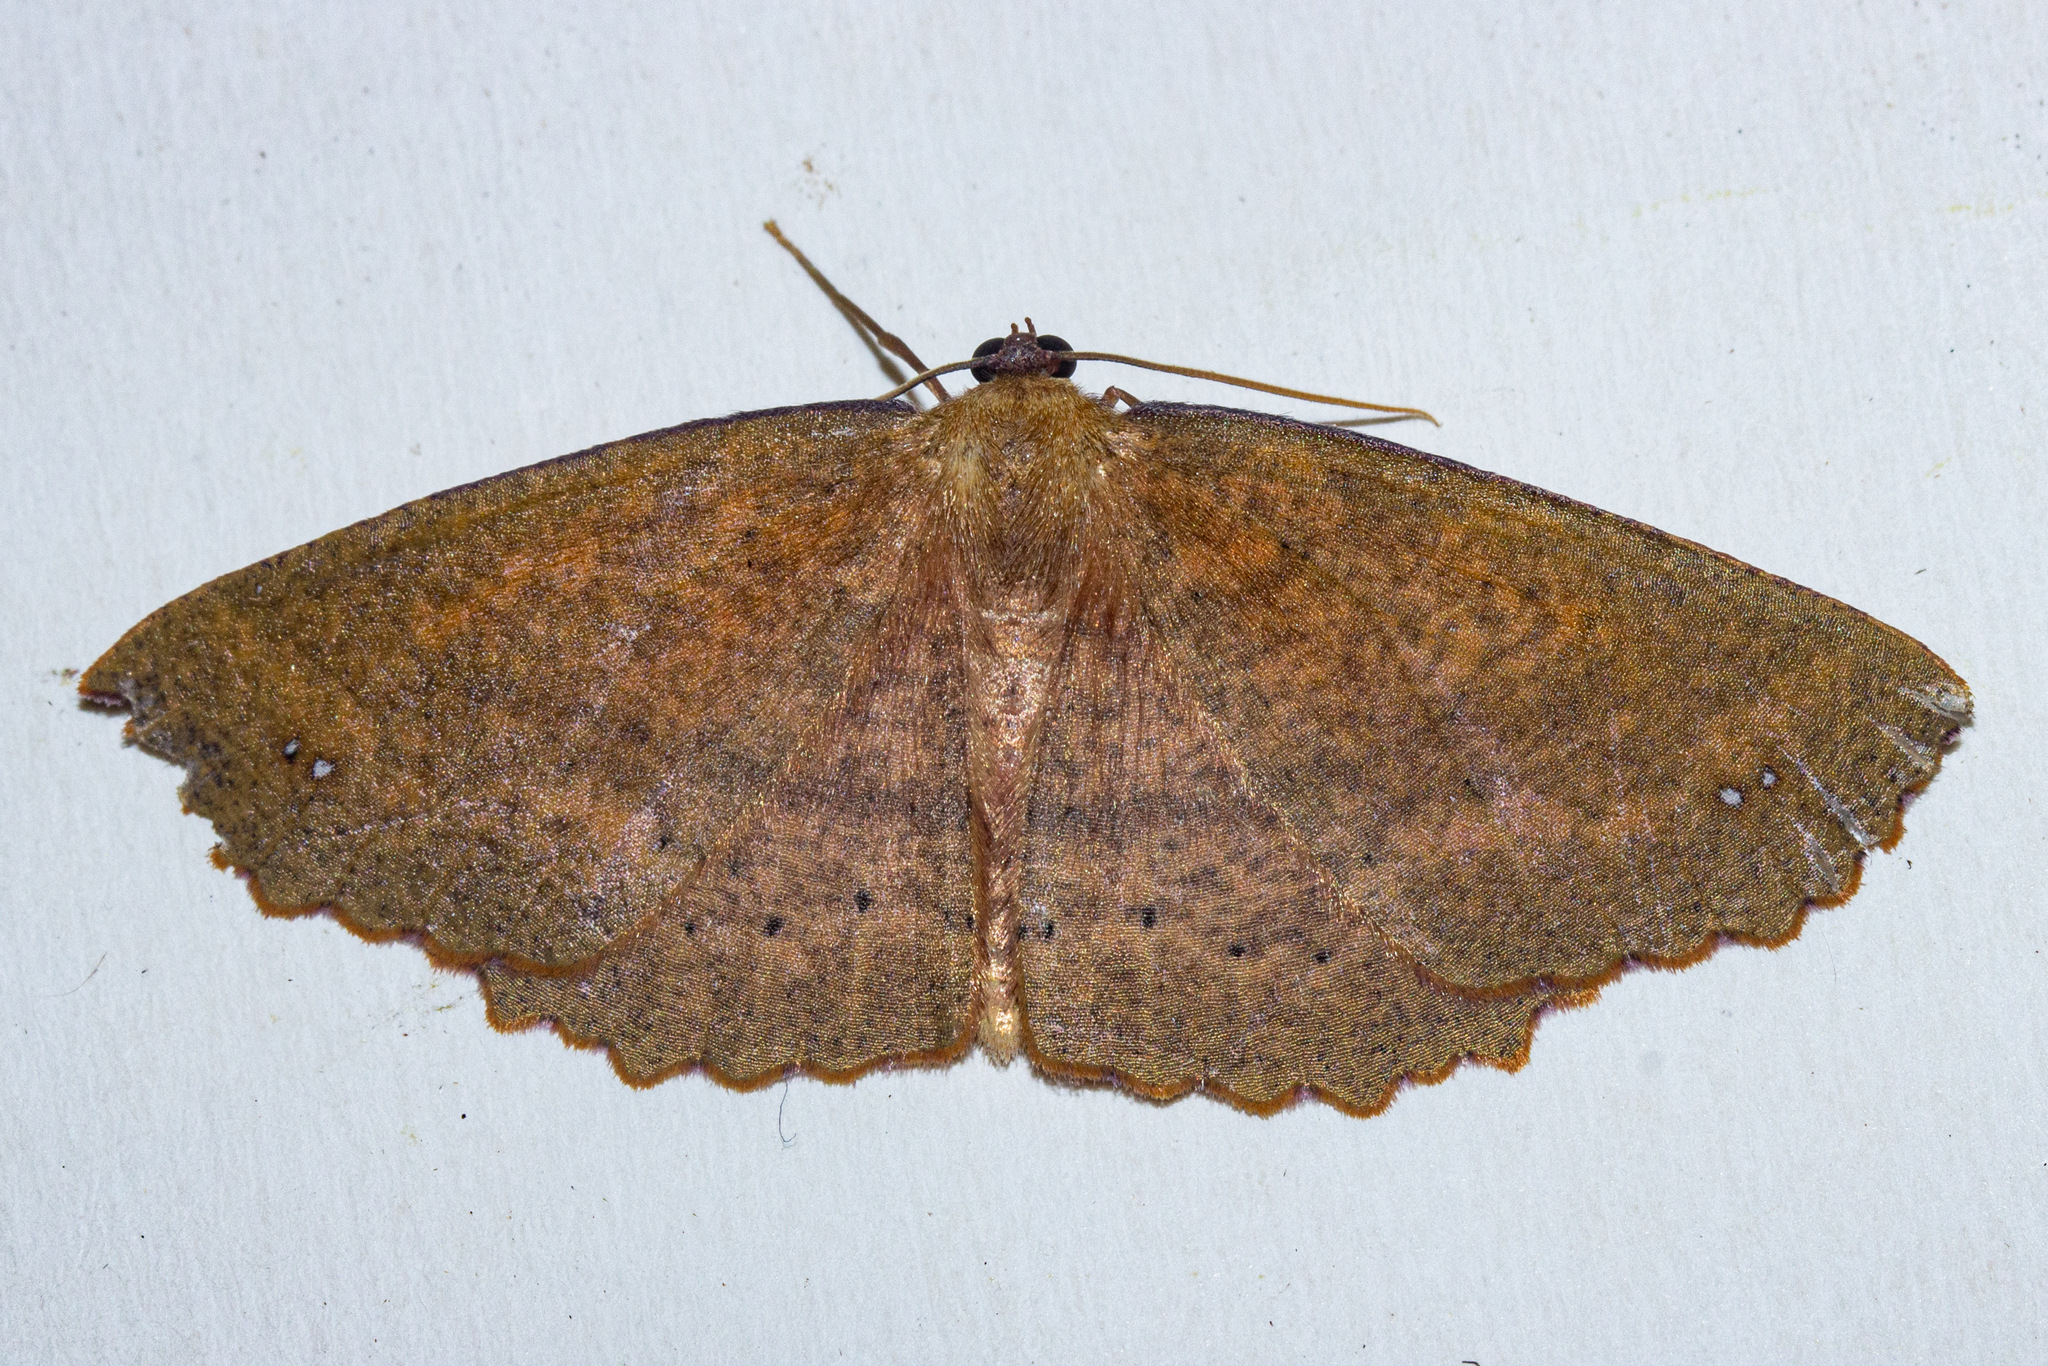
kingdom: Animalia
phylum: Arthropoda
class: Insecta
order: Lepidoptera
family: Geometridae
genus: Xyridacma
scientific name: Xyridacma alectoraria
